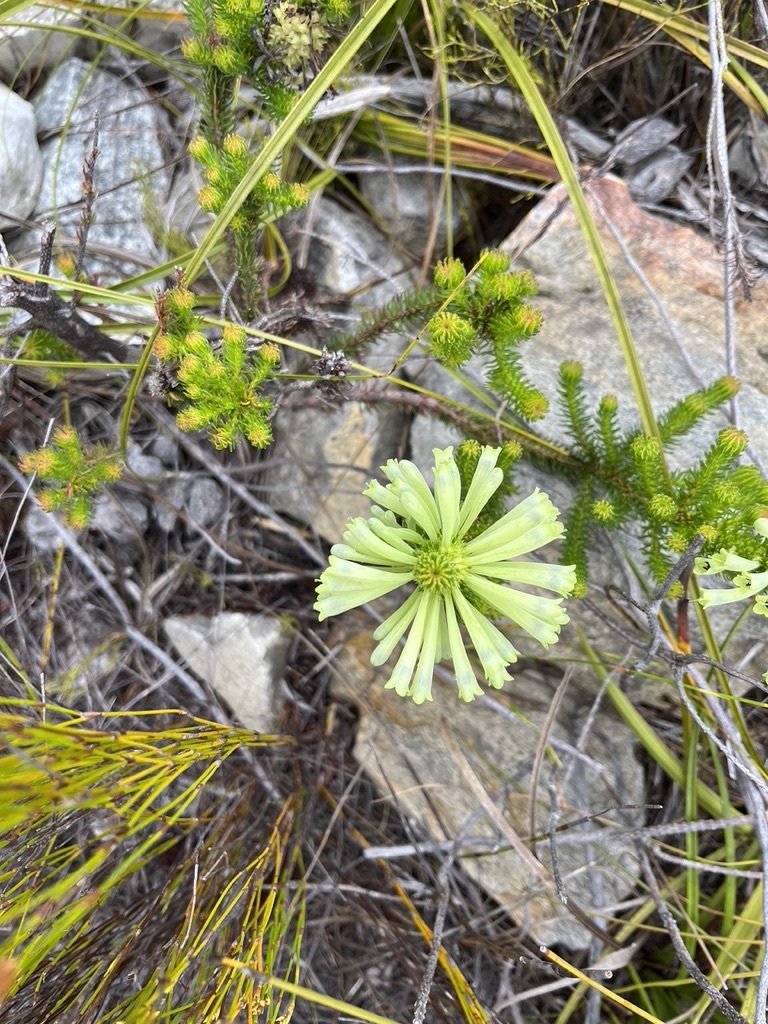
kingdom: Plantae
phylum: Tracheophyta
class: Magnoliopsida
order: Ericales
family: Ericaceae
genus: Erica
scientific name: Erica sessiliflora
